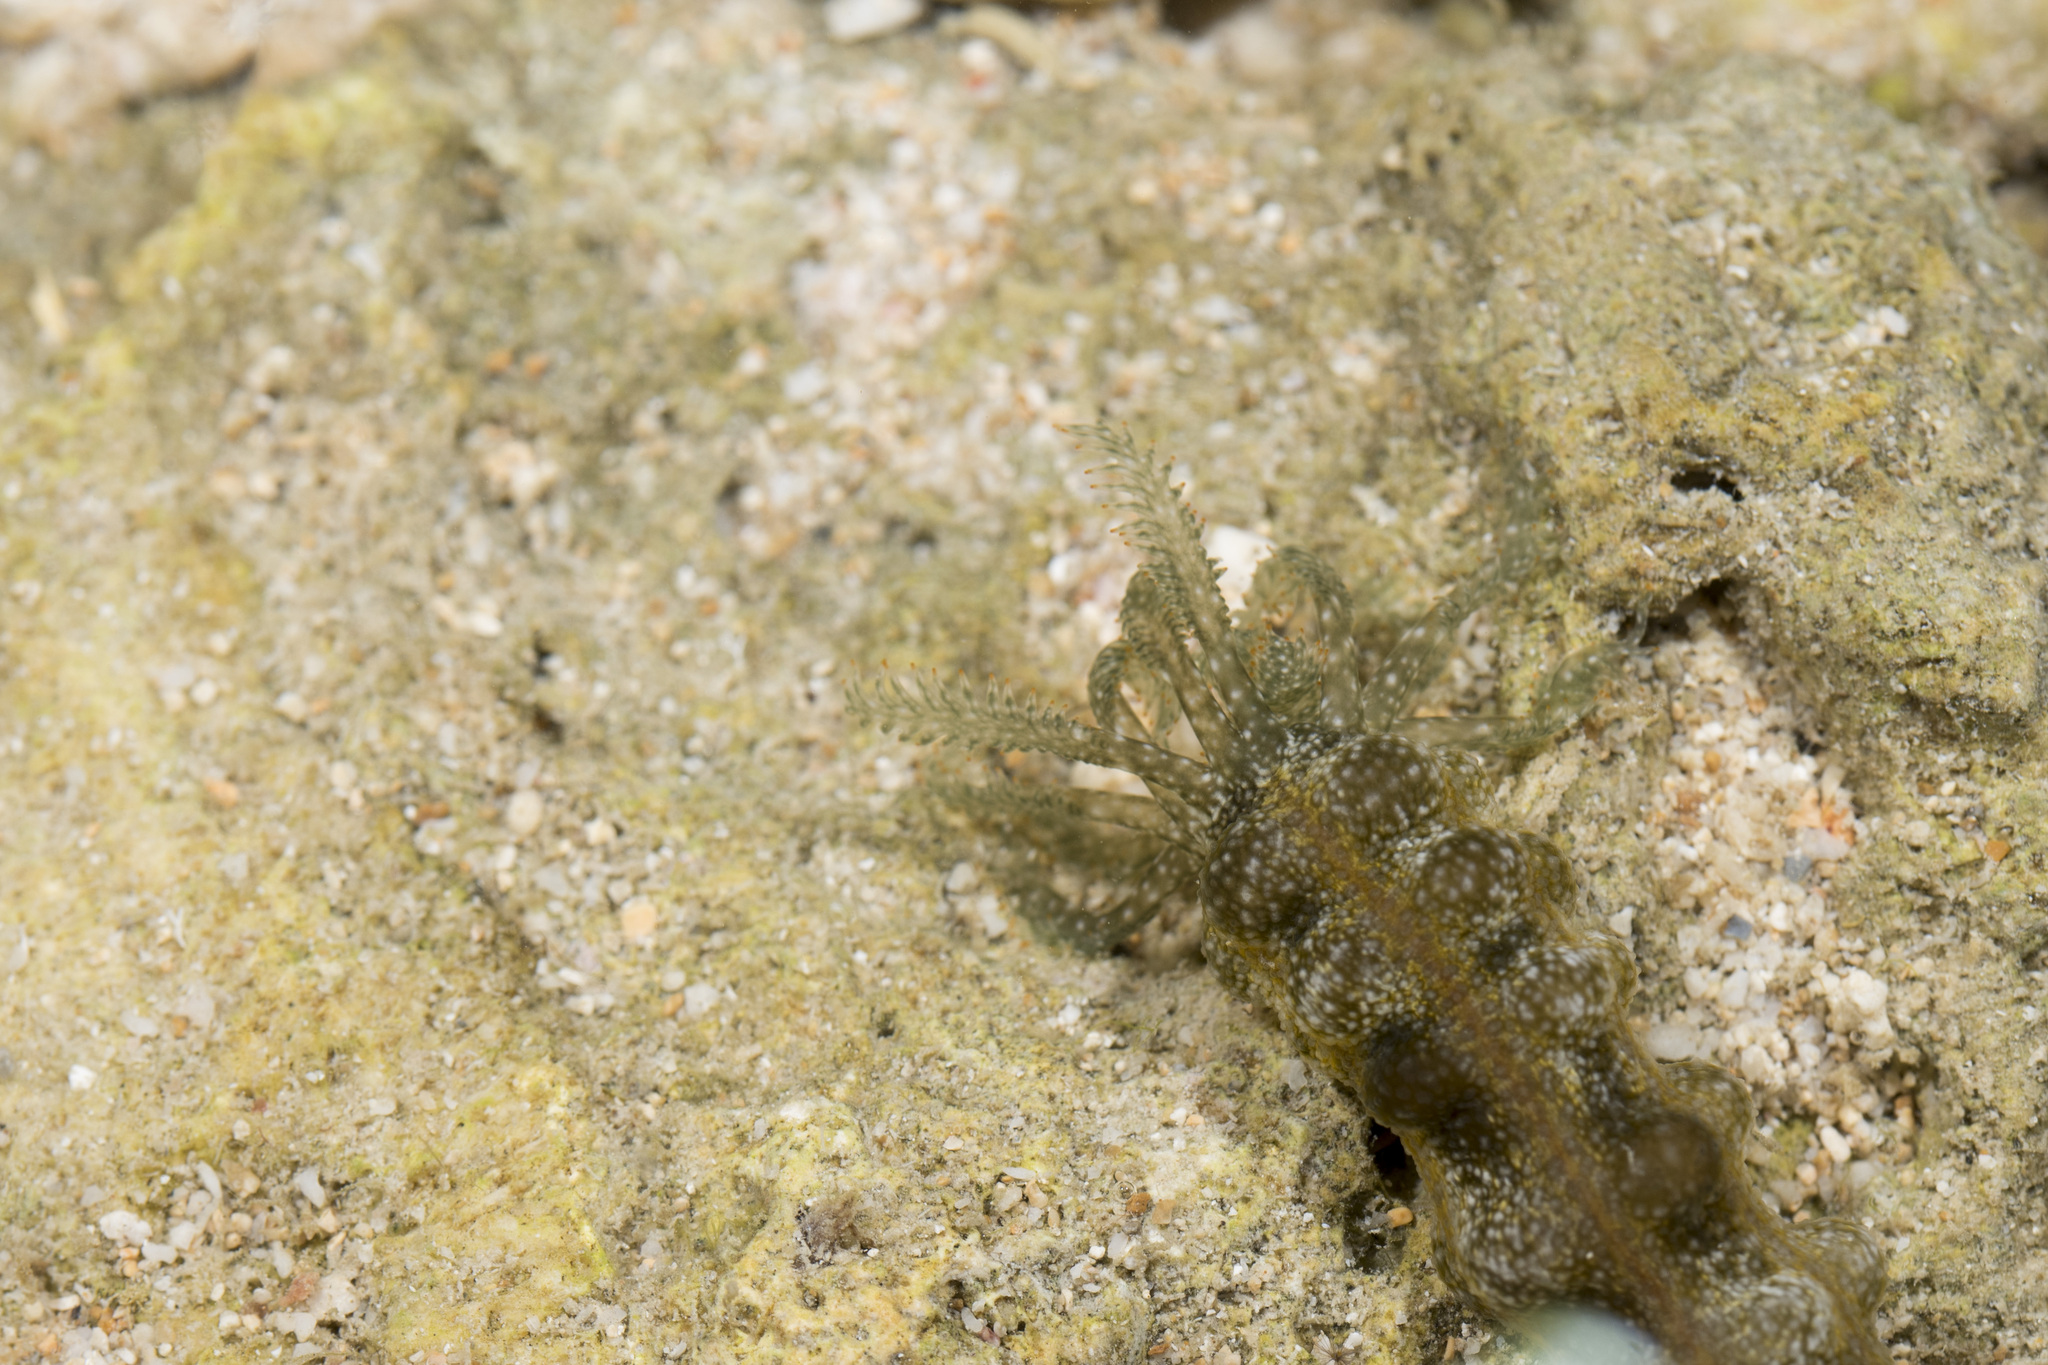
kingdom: Animalia
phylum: Echinodermata
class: Holothuroidea
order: Apodida
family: Synaptidae
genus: Synapta
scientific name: Synapta maculata
